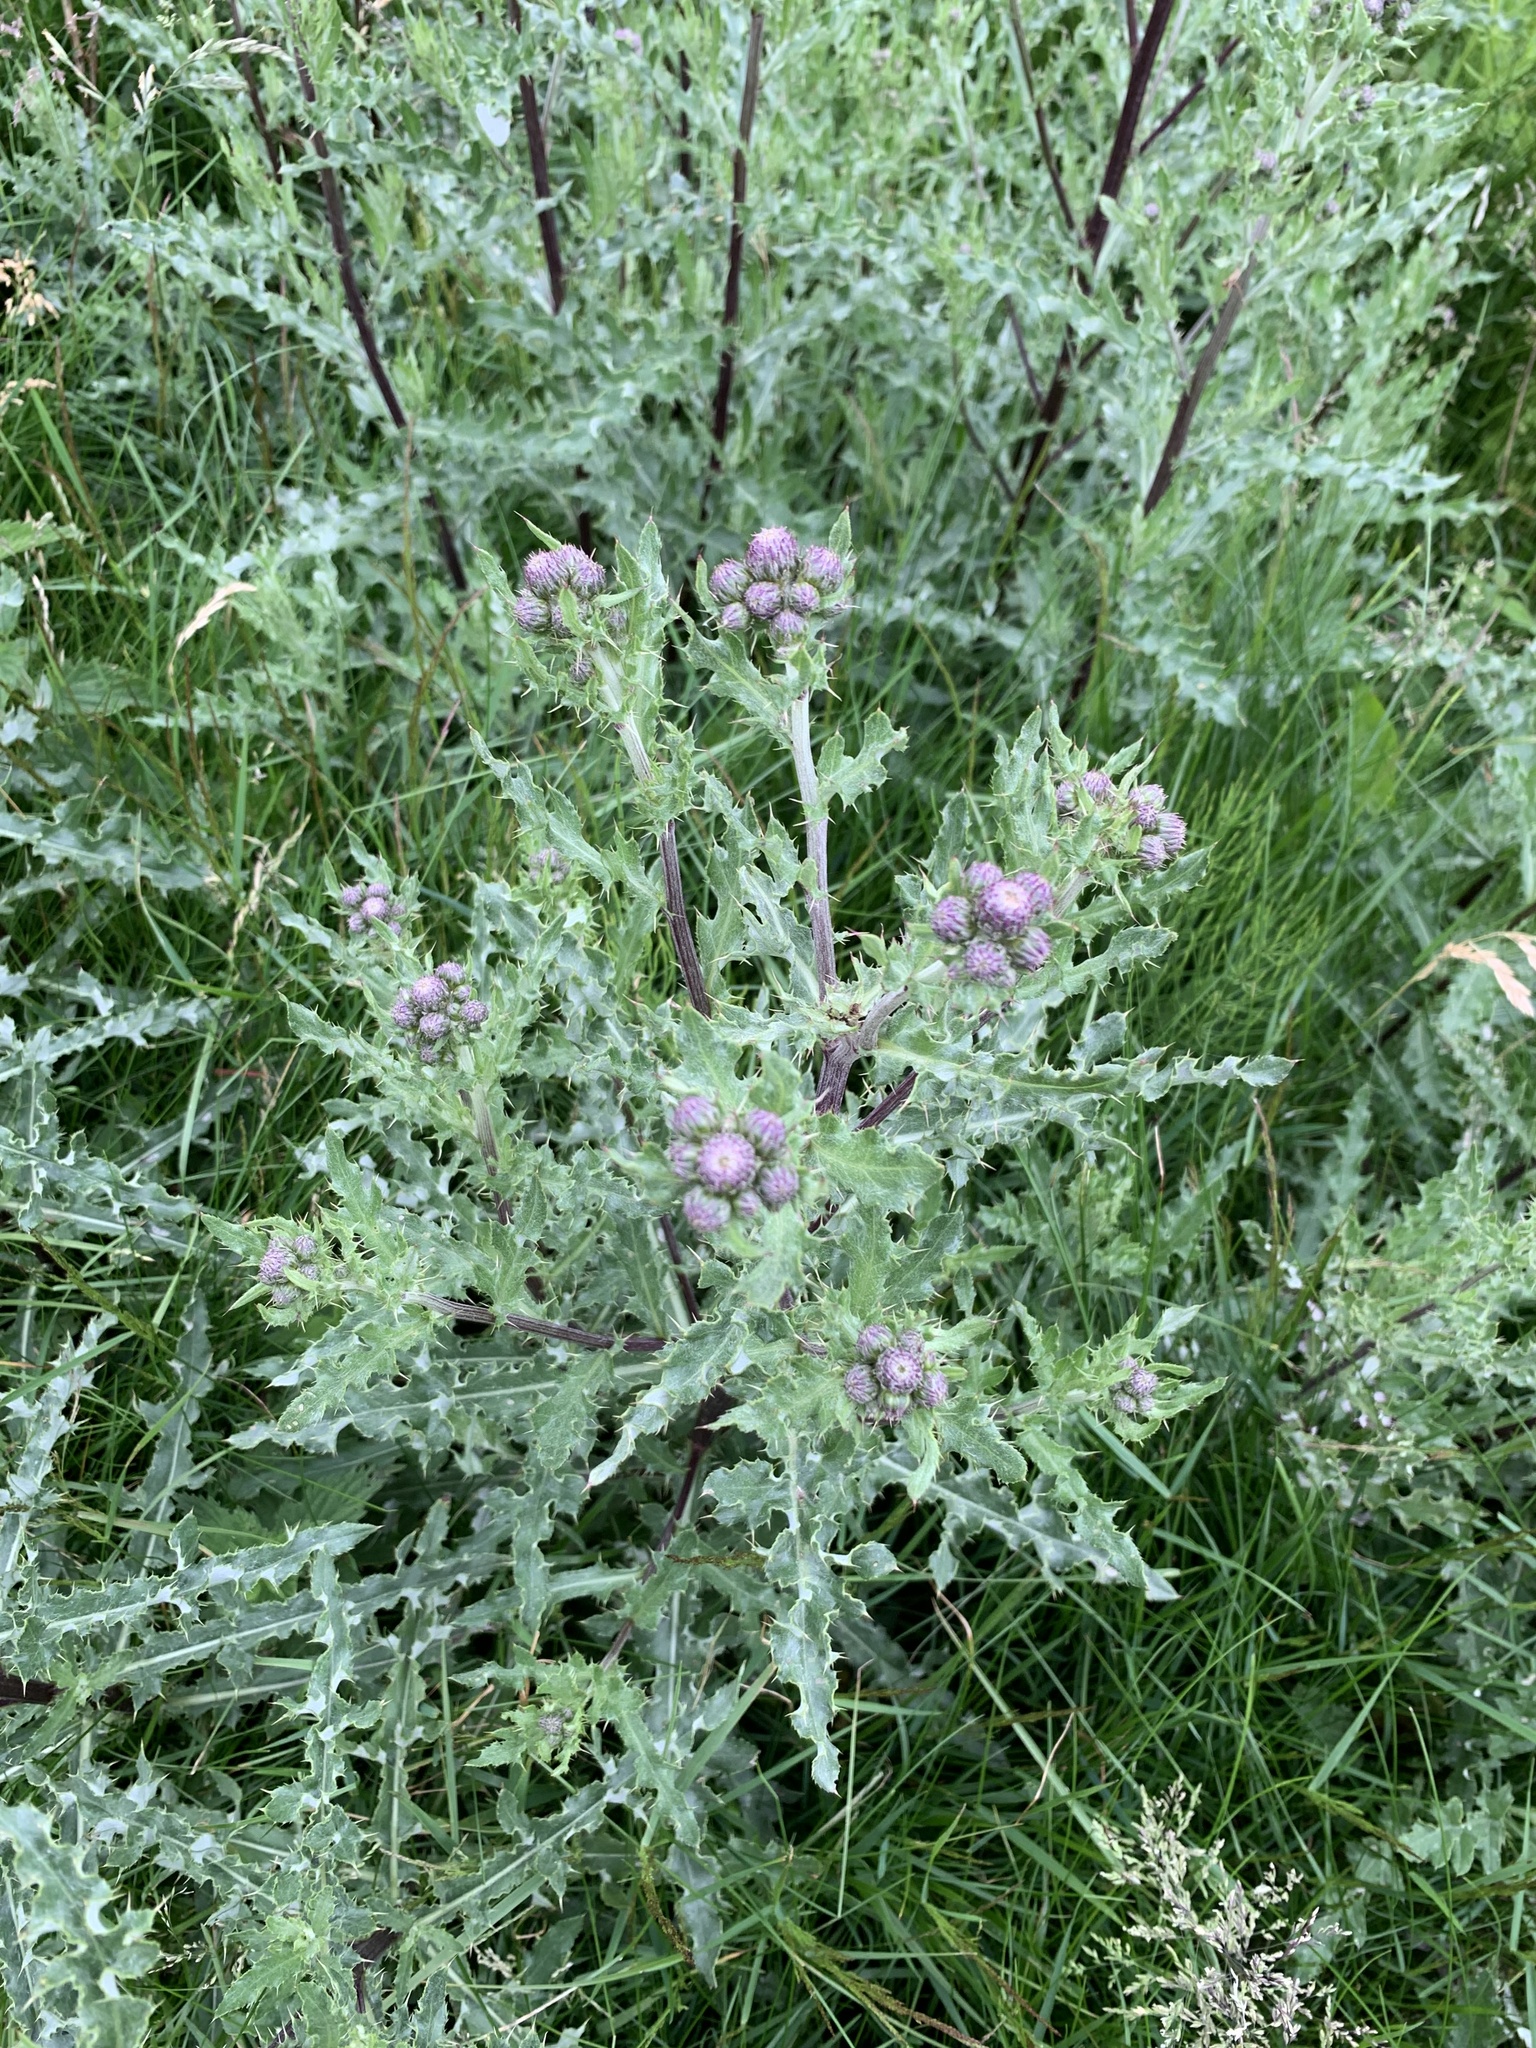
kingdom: Plantae
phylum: Tracheophyta
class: Magnoliopsida
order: Asterales
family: Asteraceae
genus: Cirsium
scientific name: Cirsium arvense
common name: Creeping thistle
